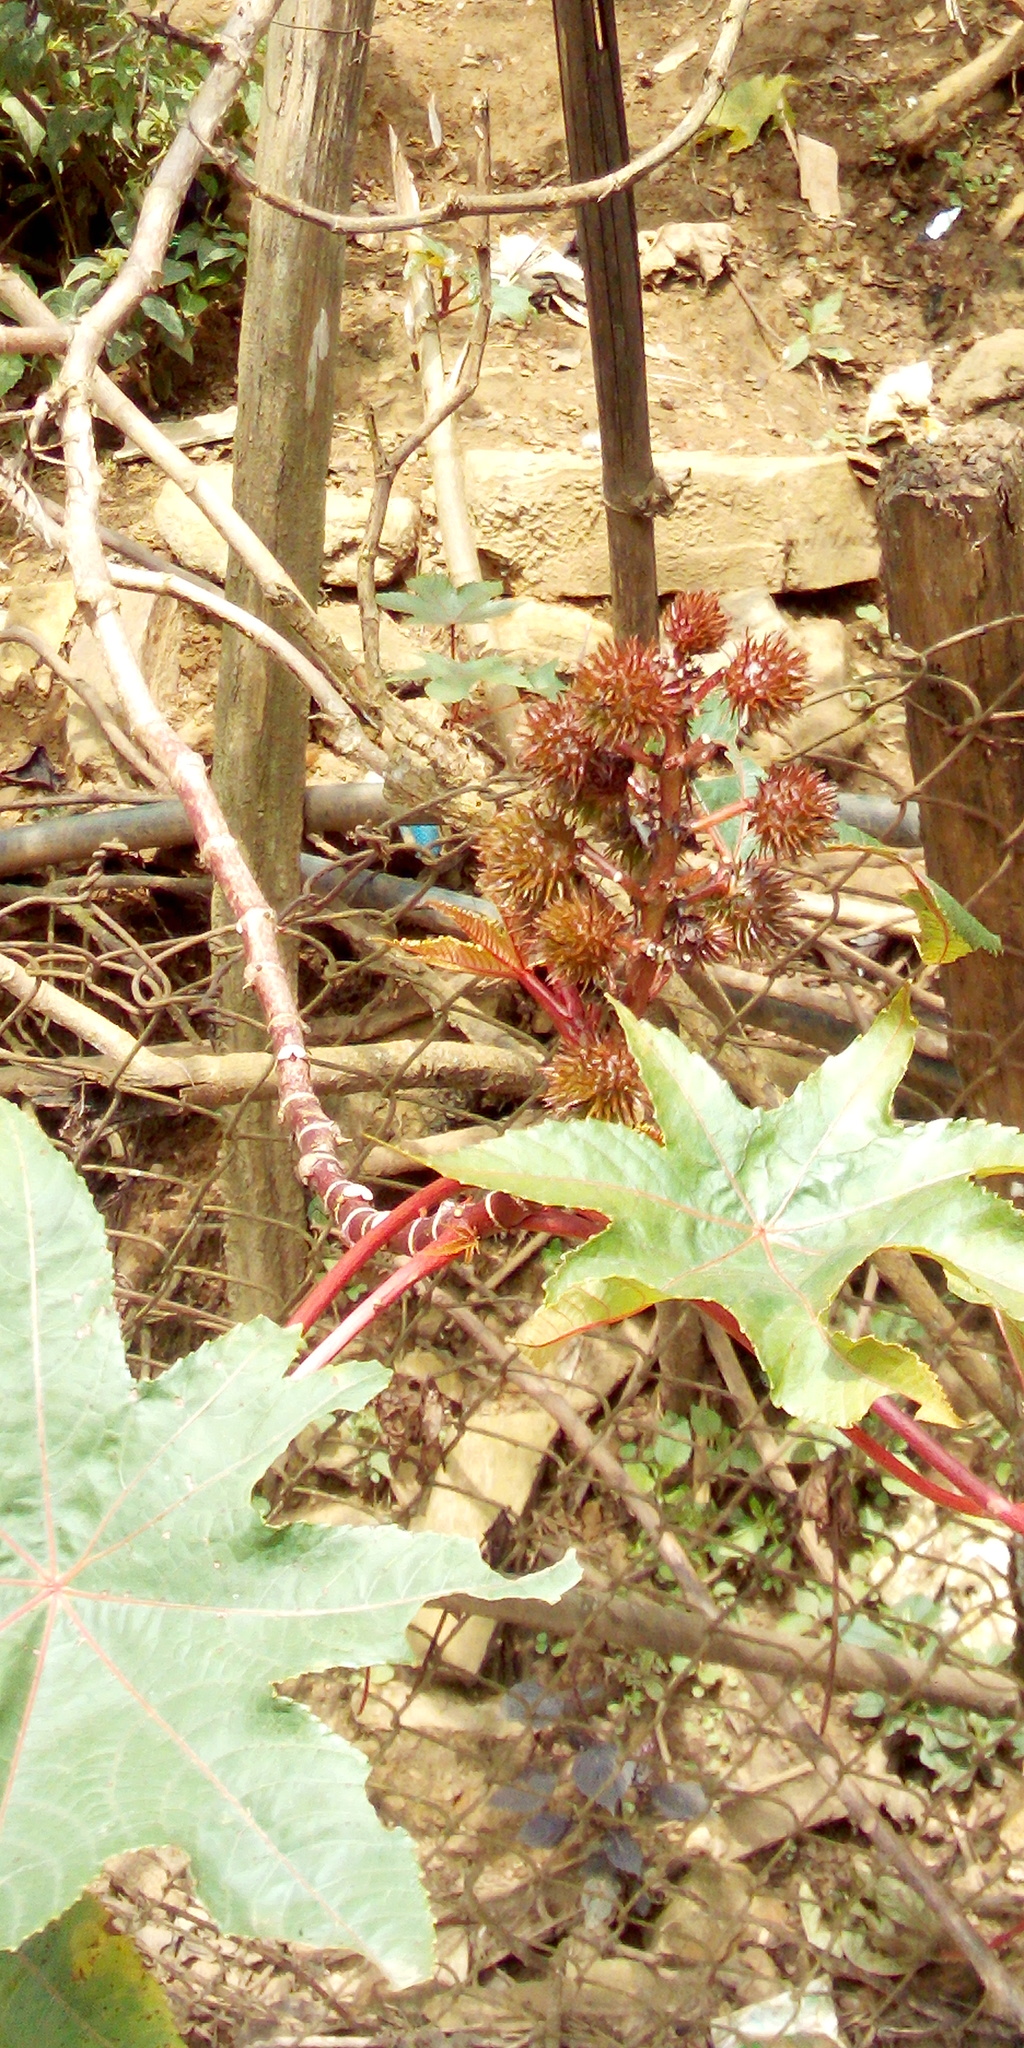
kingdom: Plantae
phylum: Tracheophyta
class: Magnoliopsida
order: Malpighiales
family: Euphorbiaceae
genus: Ricinus
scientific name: Ricinus communis
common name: Castor-oil-plant
